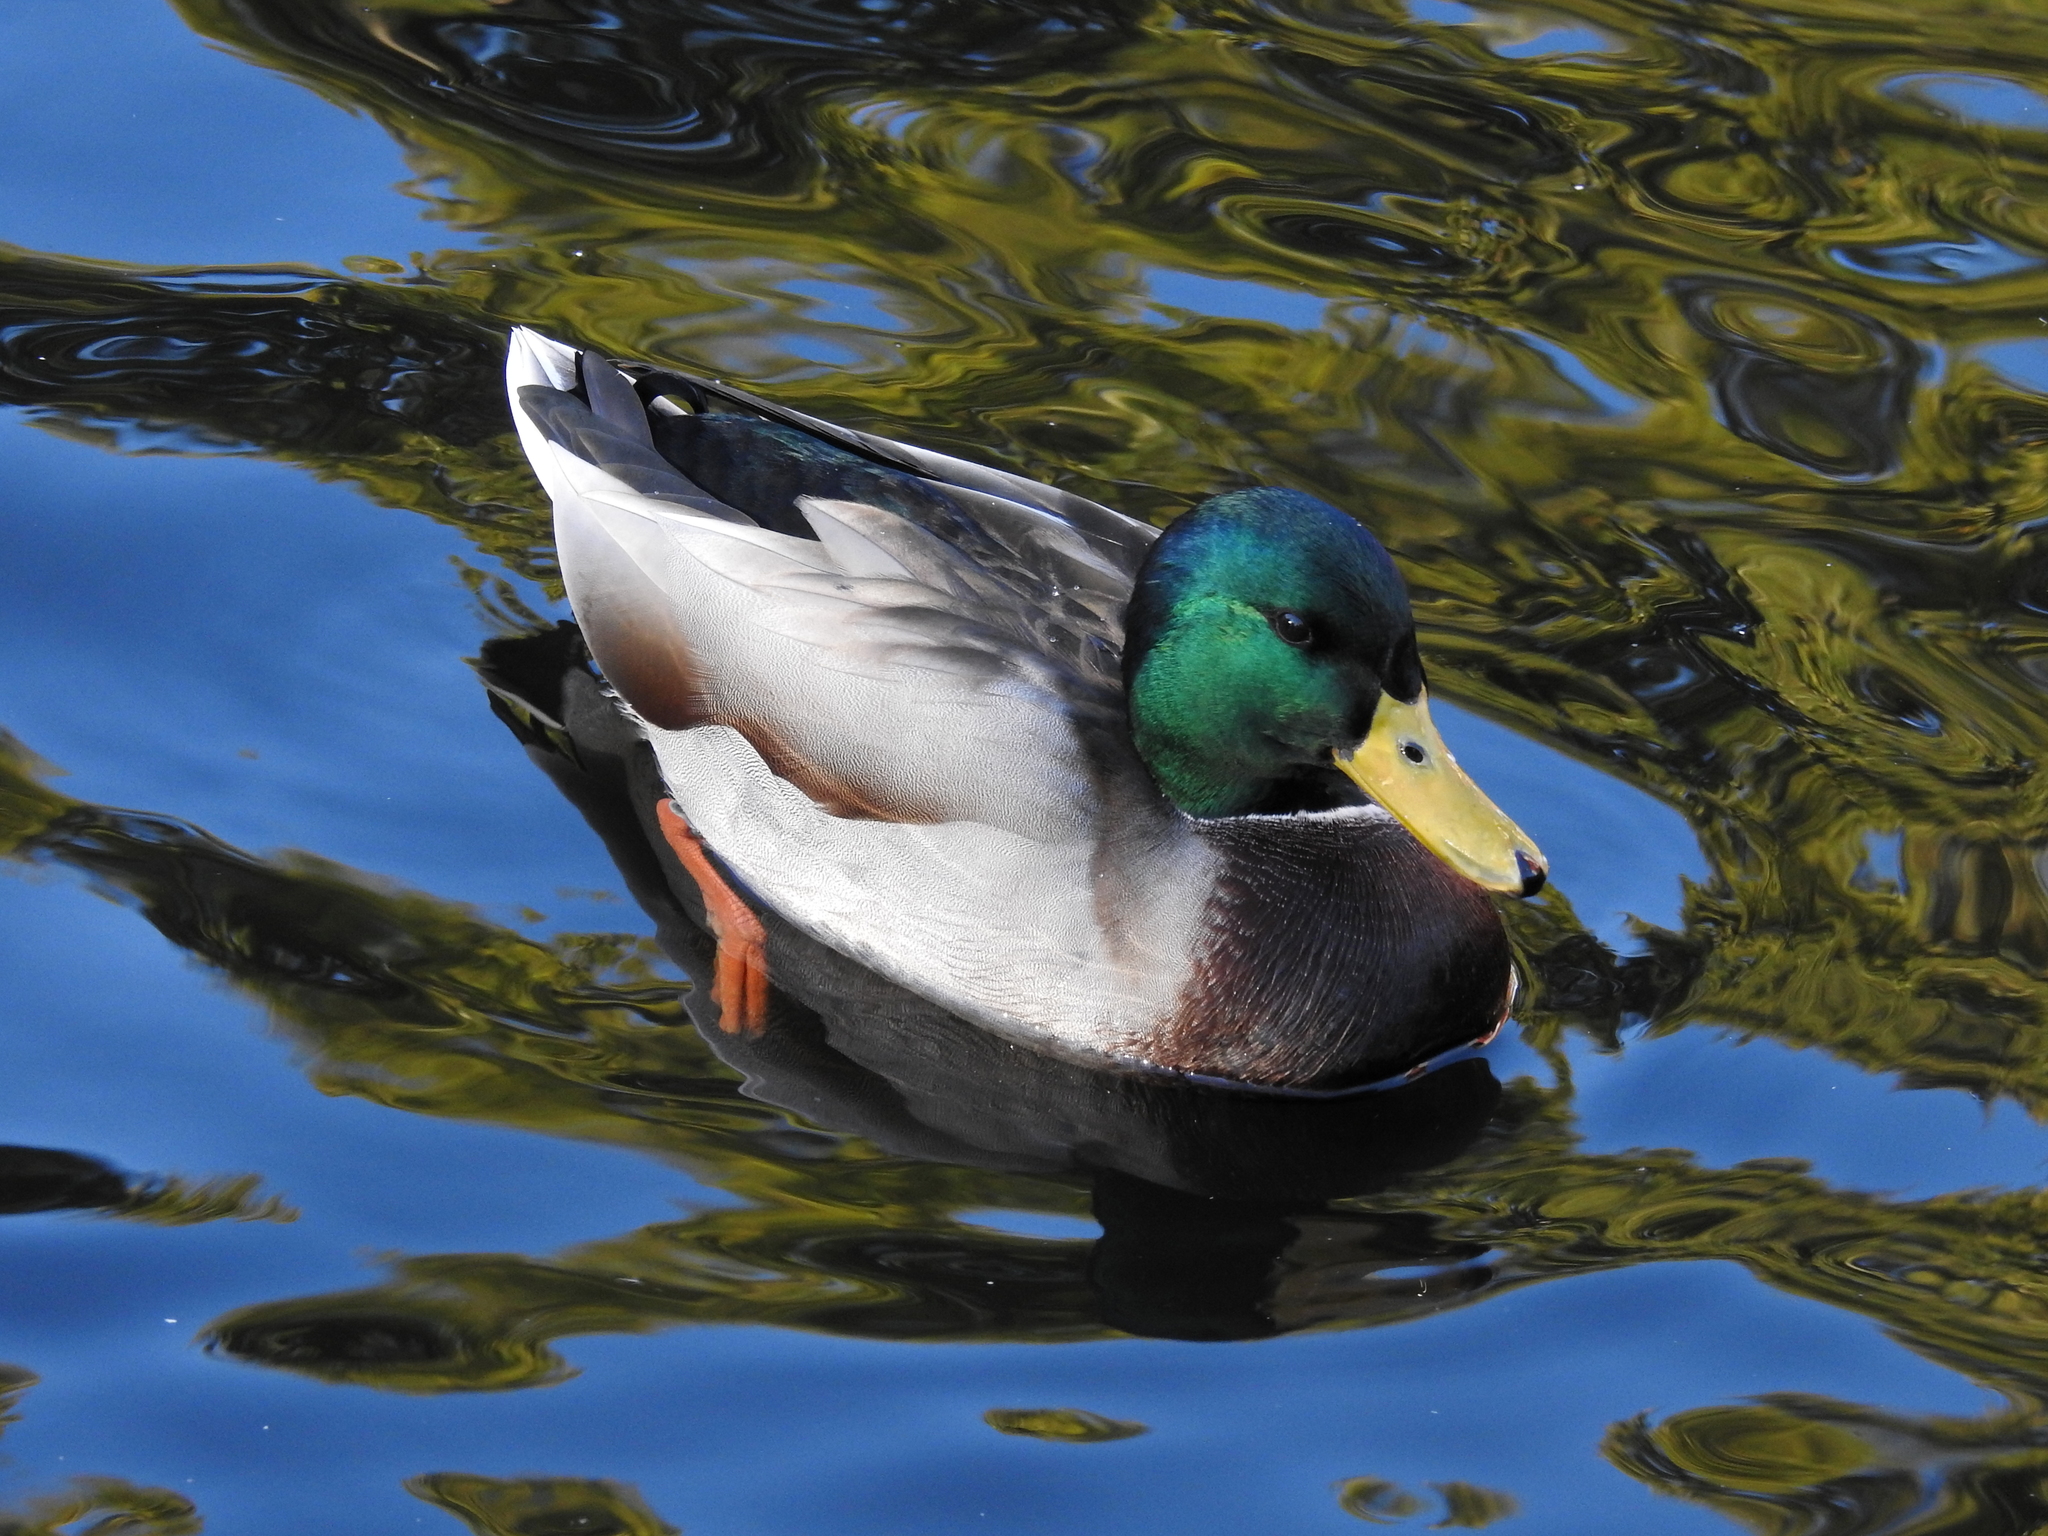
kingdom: Animalia
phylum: Chordata
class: Aves
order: Anseriformes
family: Anatidae
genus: Anas
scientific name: Anas platyrhynchos
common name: Mallard
